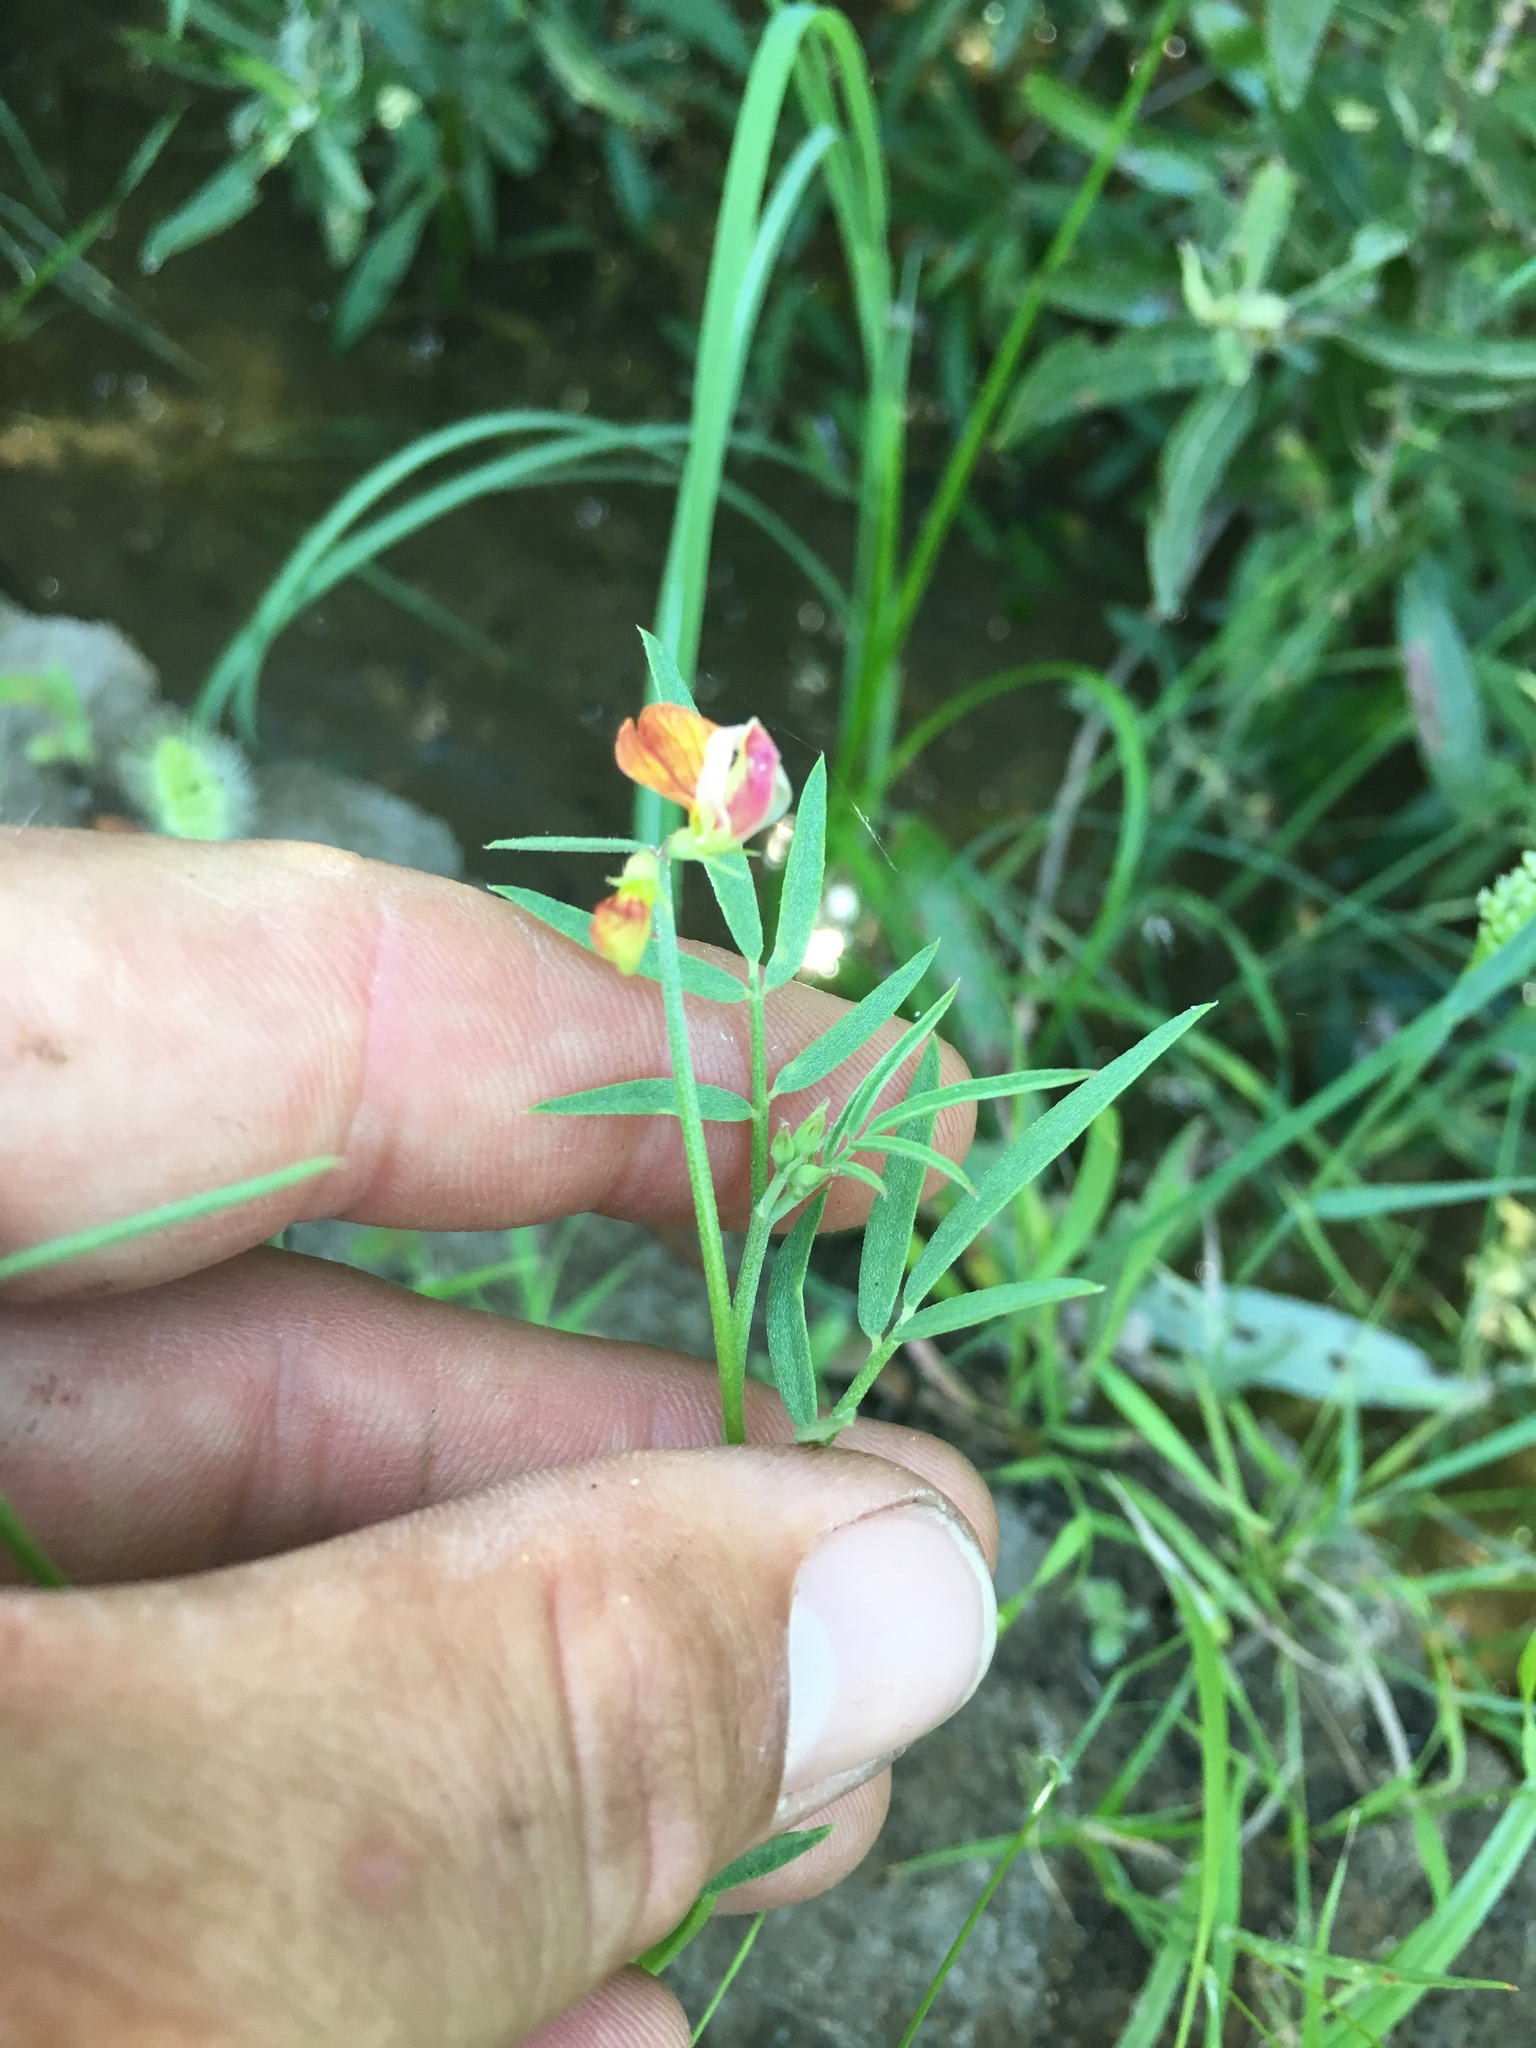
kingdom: Plantae
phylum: Tracheophyta
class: Magnoliopsida
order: Fabales
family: Fabaceae
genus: Hosackia
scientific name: Hosackia oblongifolia
